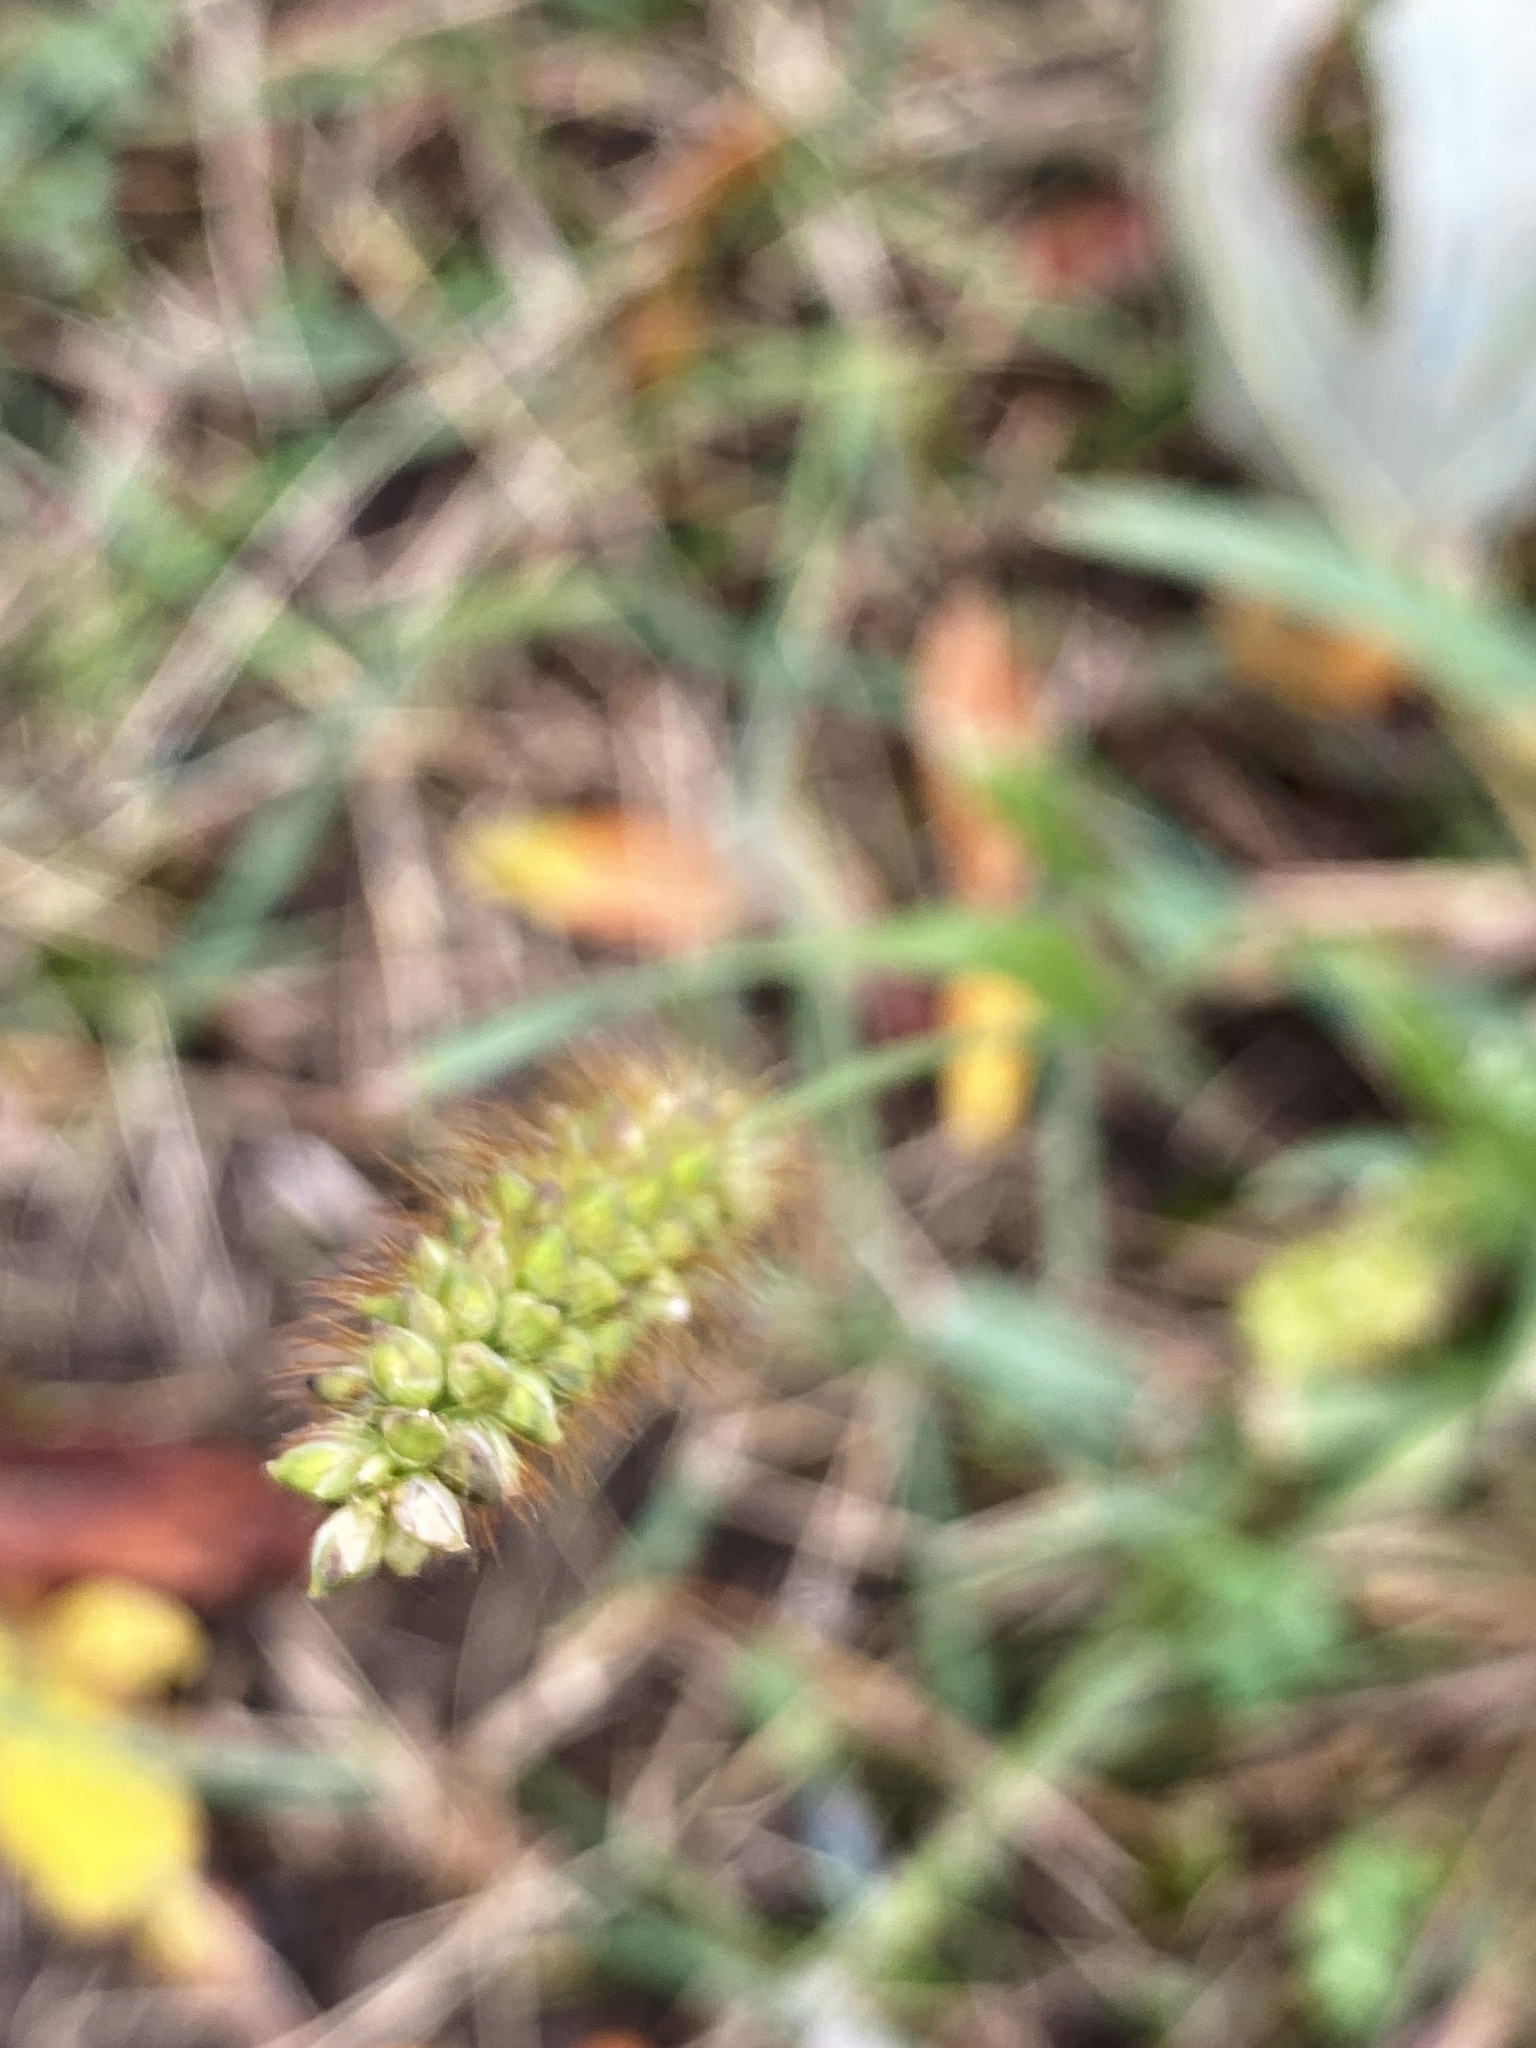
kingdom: Plantae
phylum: Tracheophyta
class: Liliopsida
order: Poales
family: Poaceae
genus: Setaria
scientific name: Setaria pumila
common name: Yellow bristle-grass
